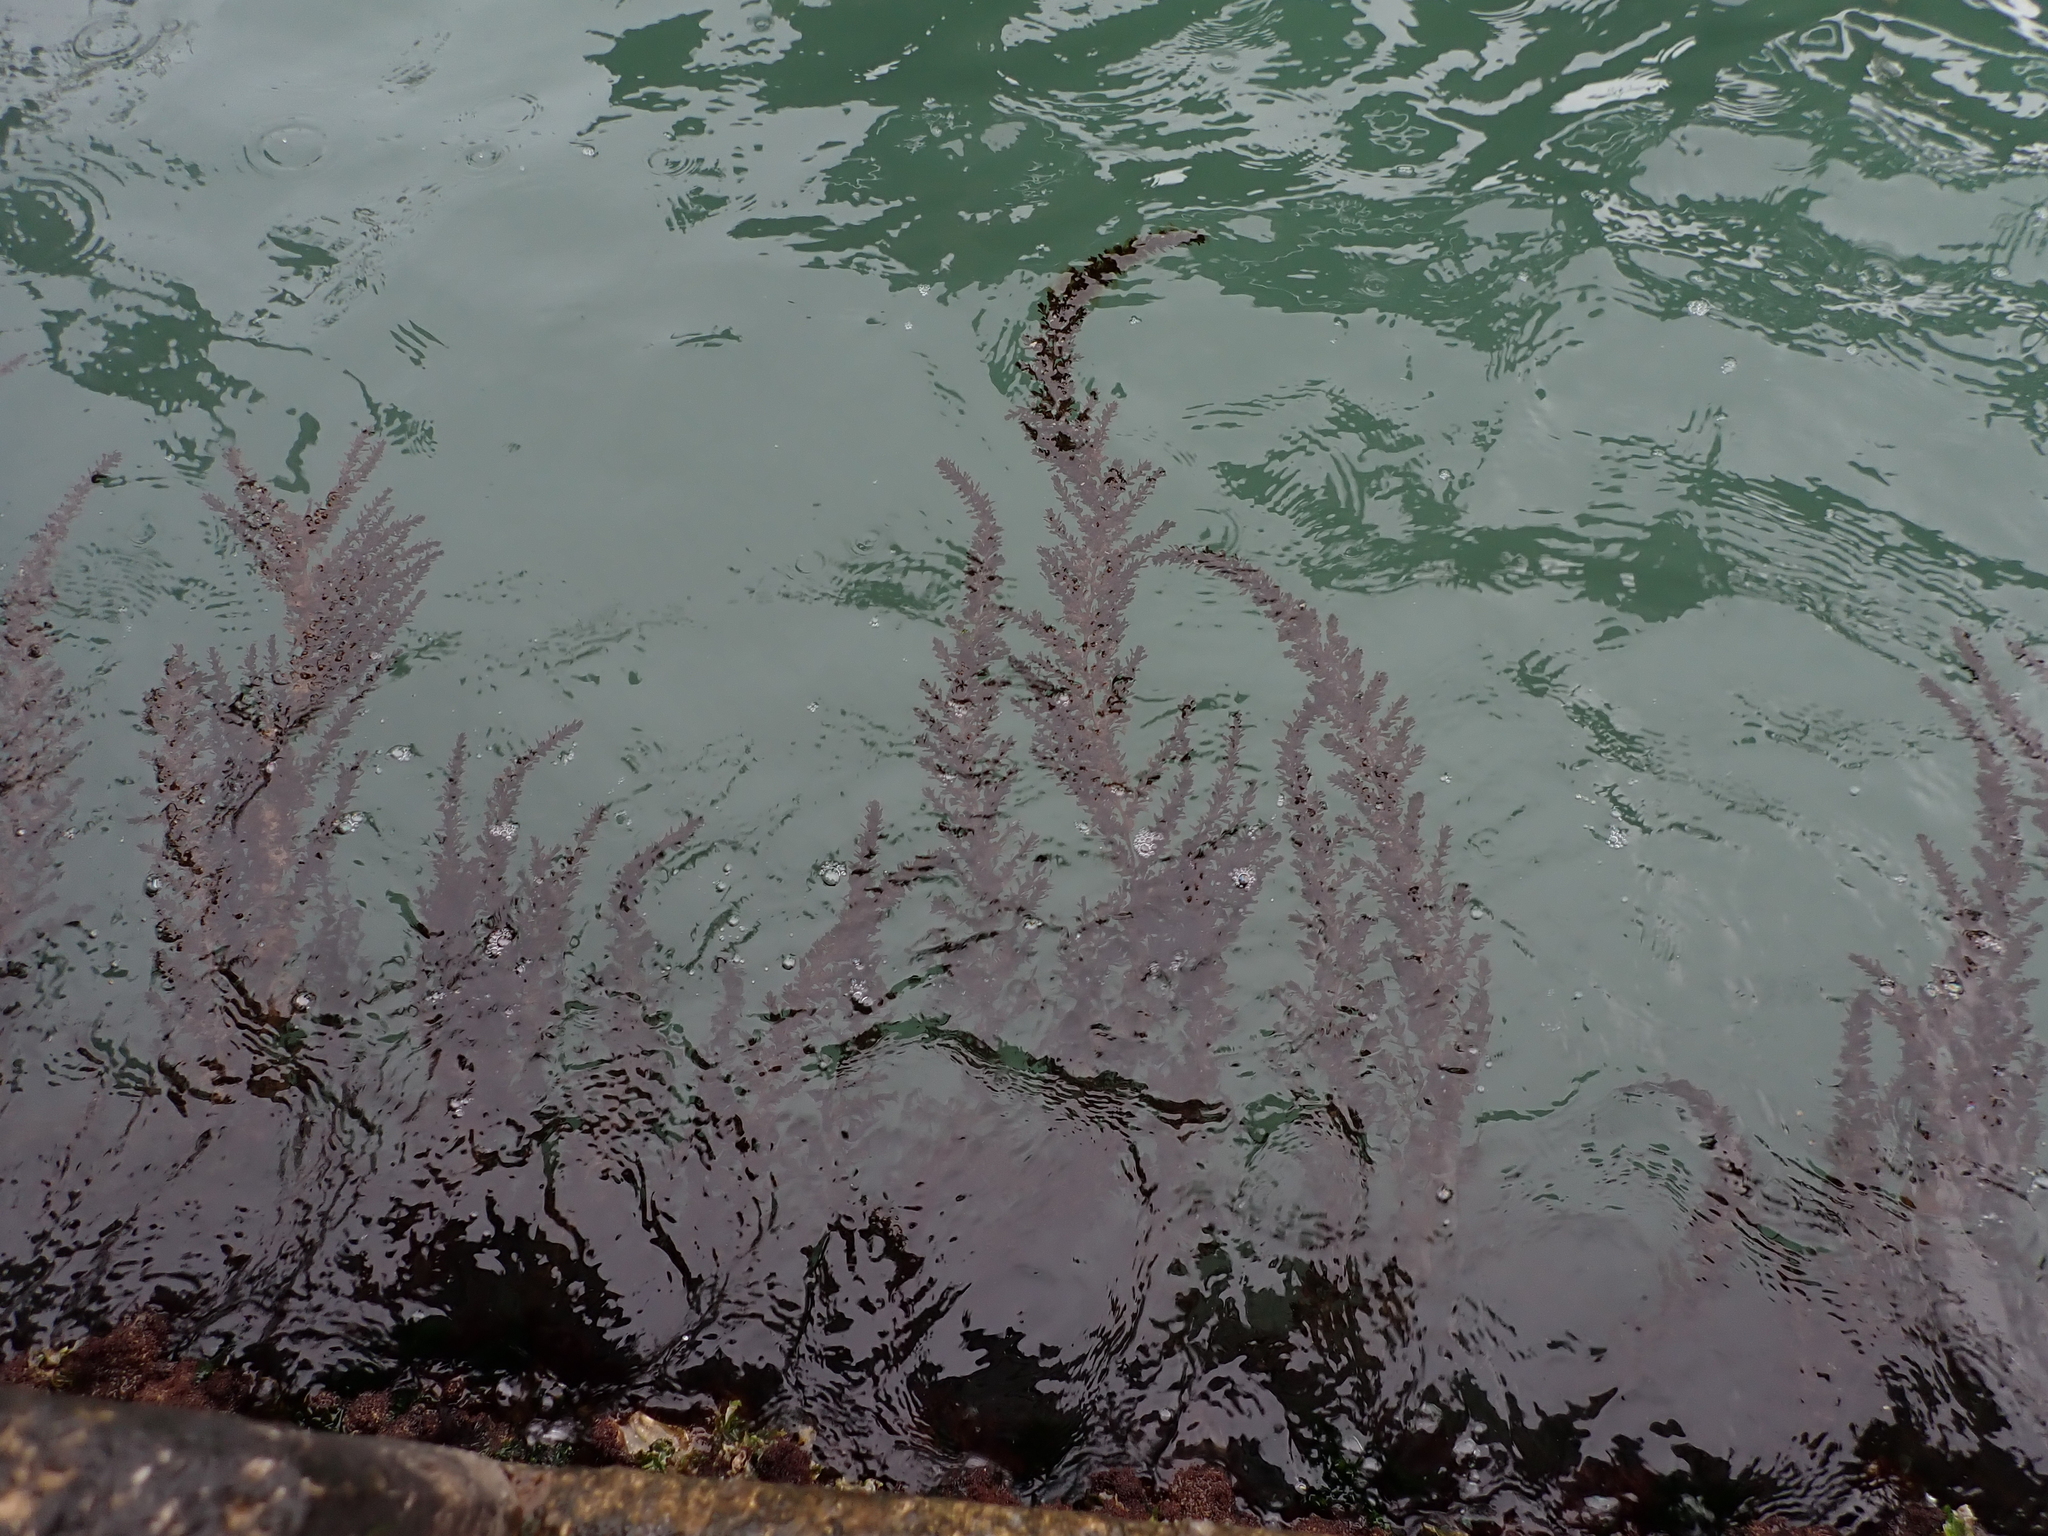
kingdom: Chromista
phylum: Ochrophyta
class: Phaeophyceae
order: Fucales
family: Sargassaceae
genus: Sargassum
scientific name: Sargassum muticum
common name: Japweed
